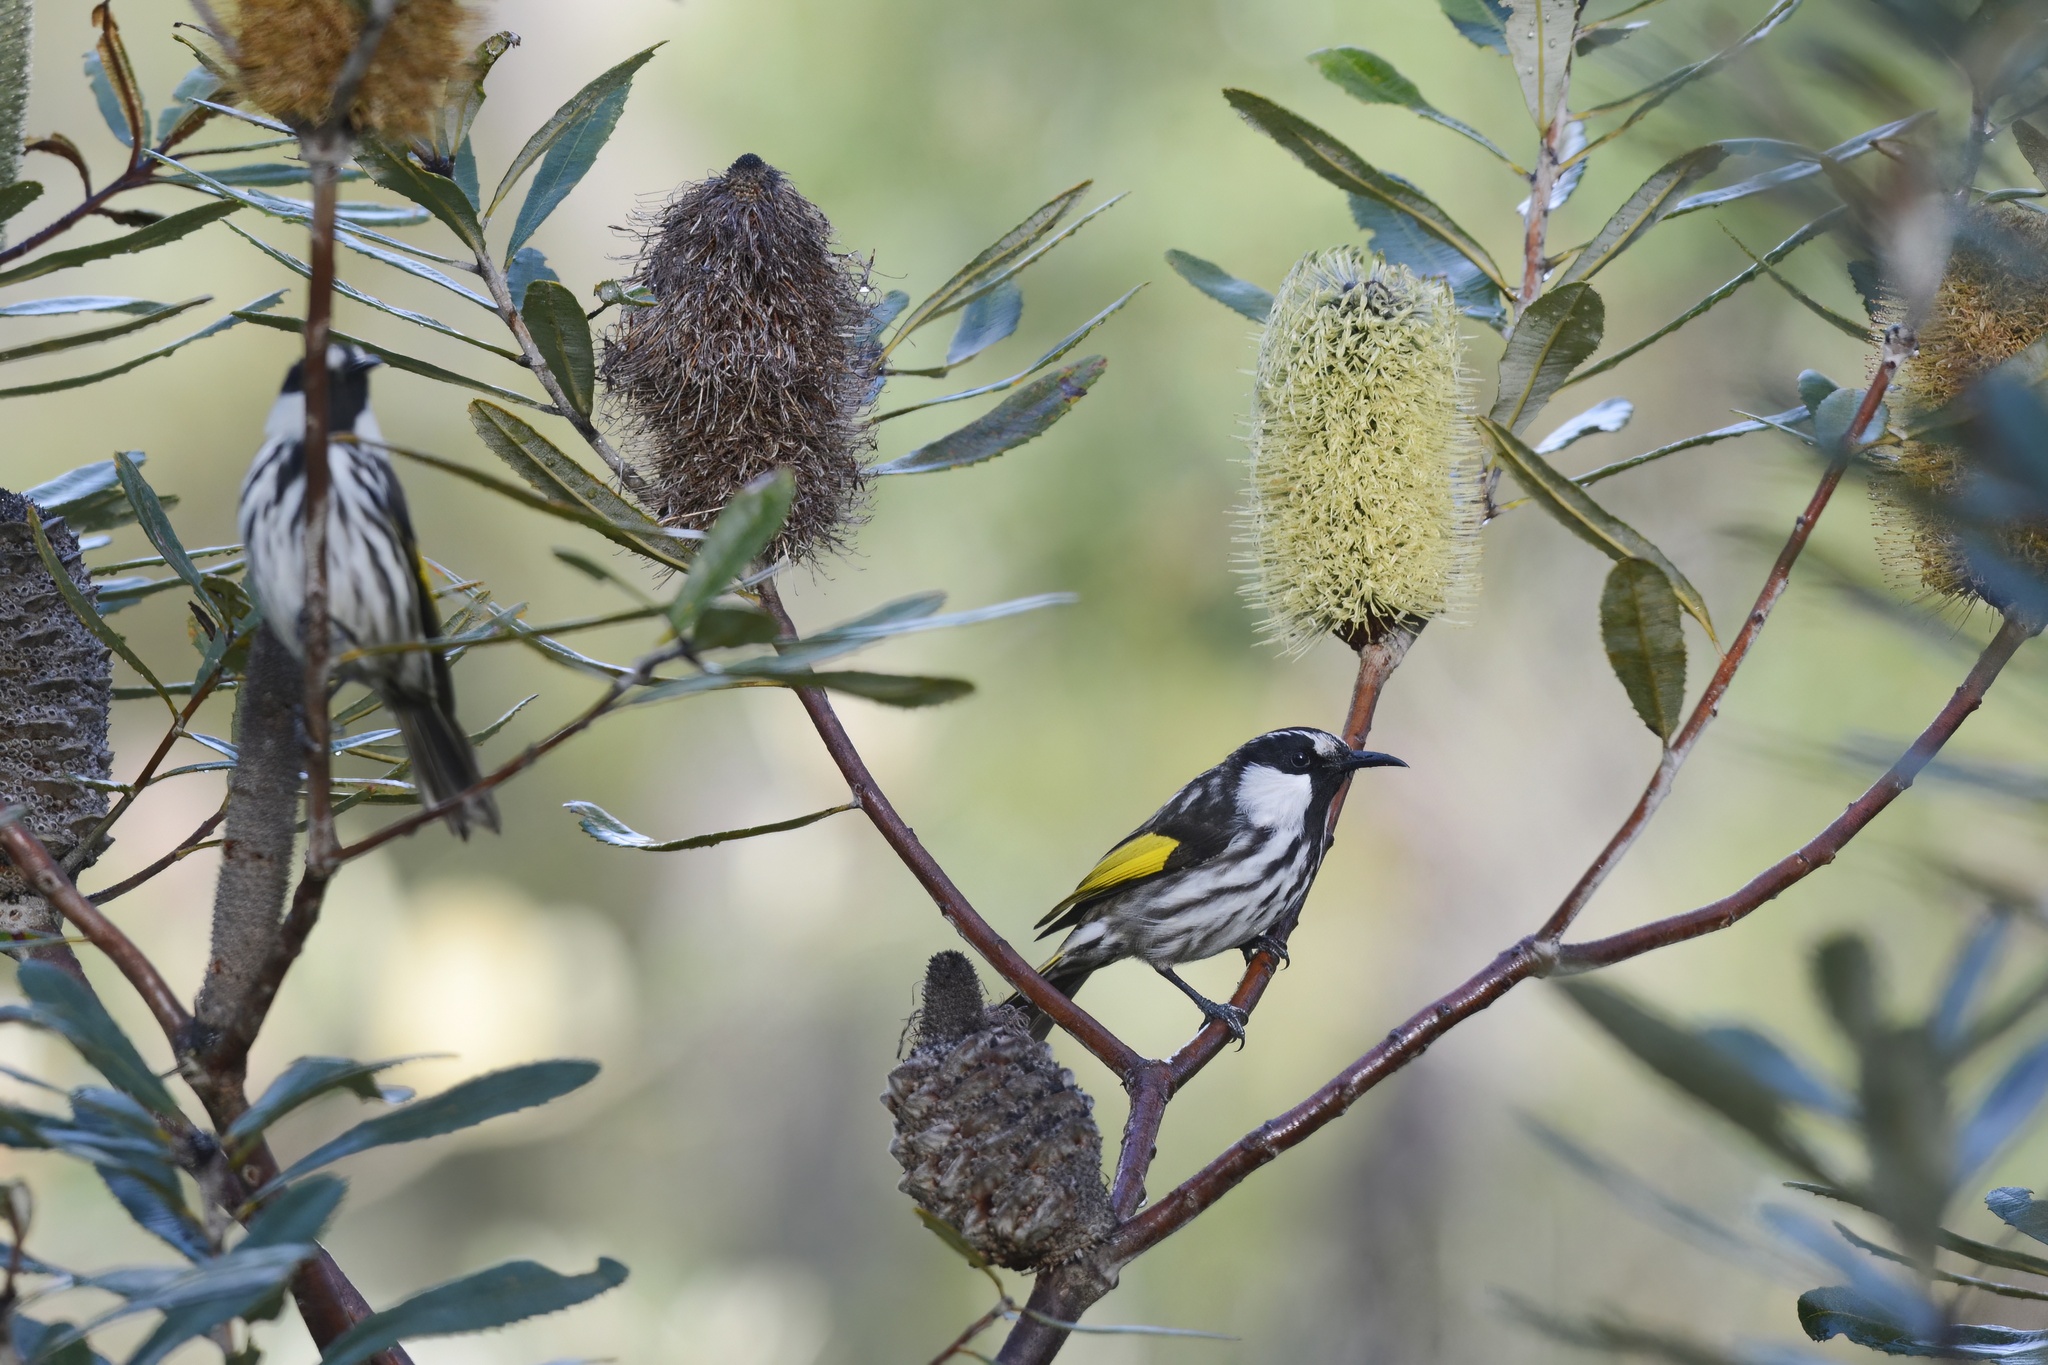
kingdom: Animalia
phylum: Chordata
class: Aves
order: Passeriformes
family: Meliphagidae
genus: Phylidonyris
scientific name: Phylidonyris niger
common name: White-cheeked honeyeater
